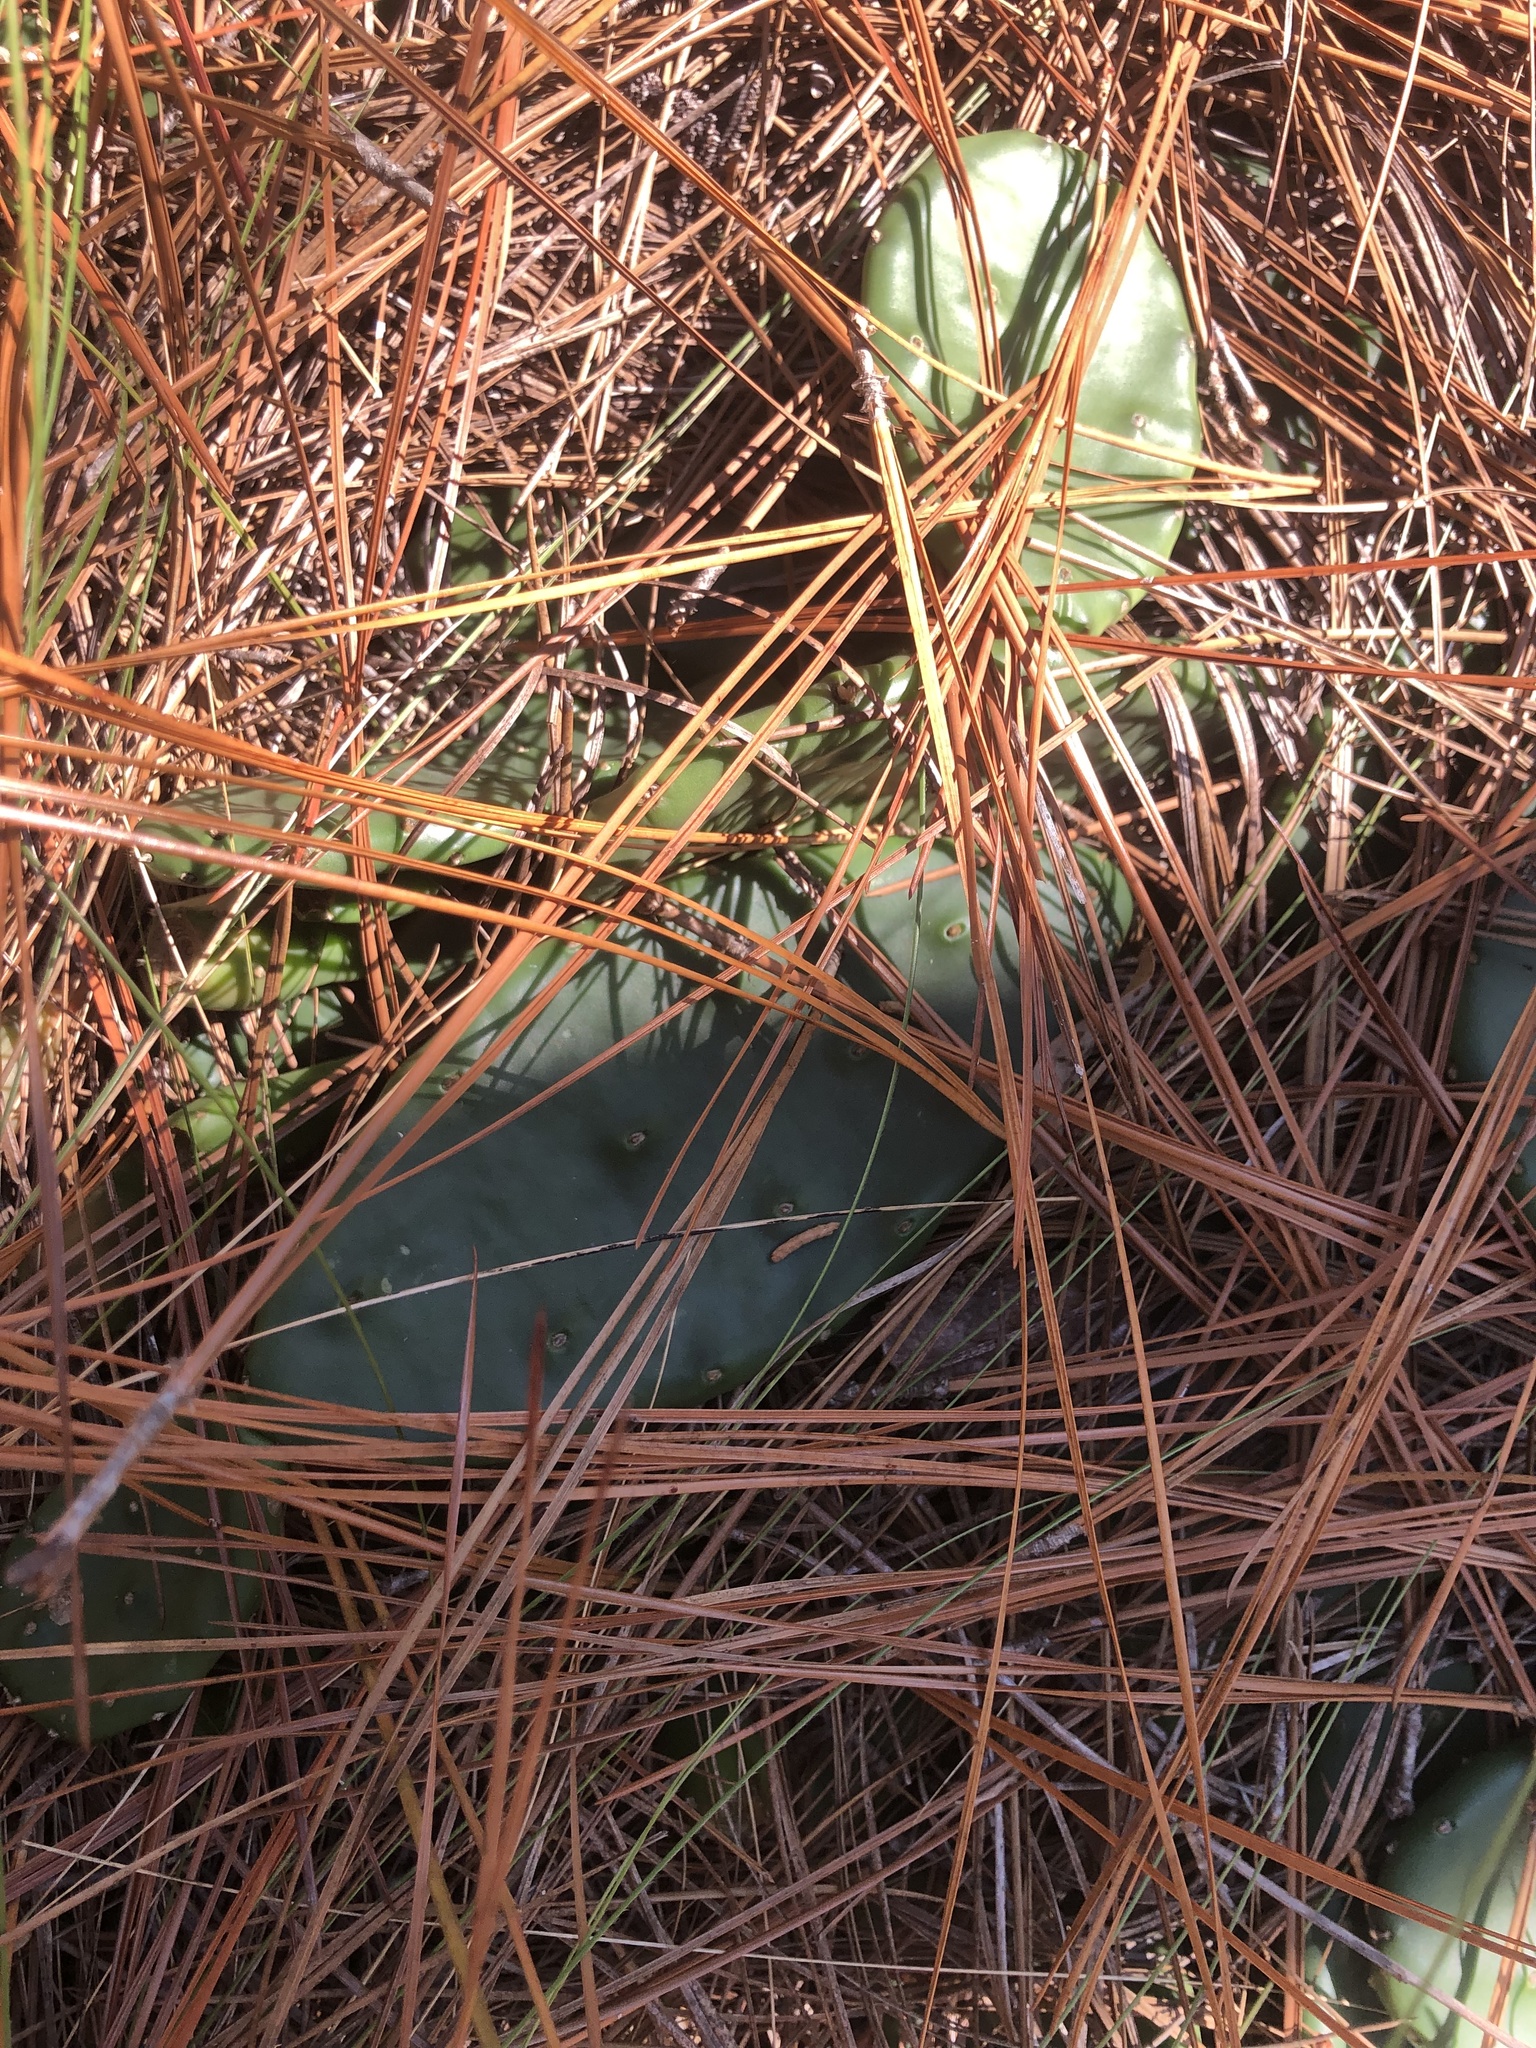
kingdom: Plantae
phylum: Tracheophyta
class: Magnoliopsida
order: Caryophyllales
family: Cactaceae
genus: Opuntia
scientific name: Opuntia mesacantha
